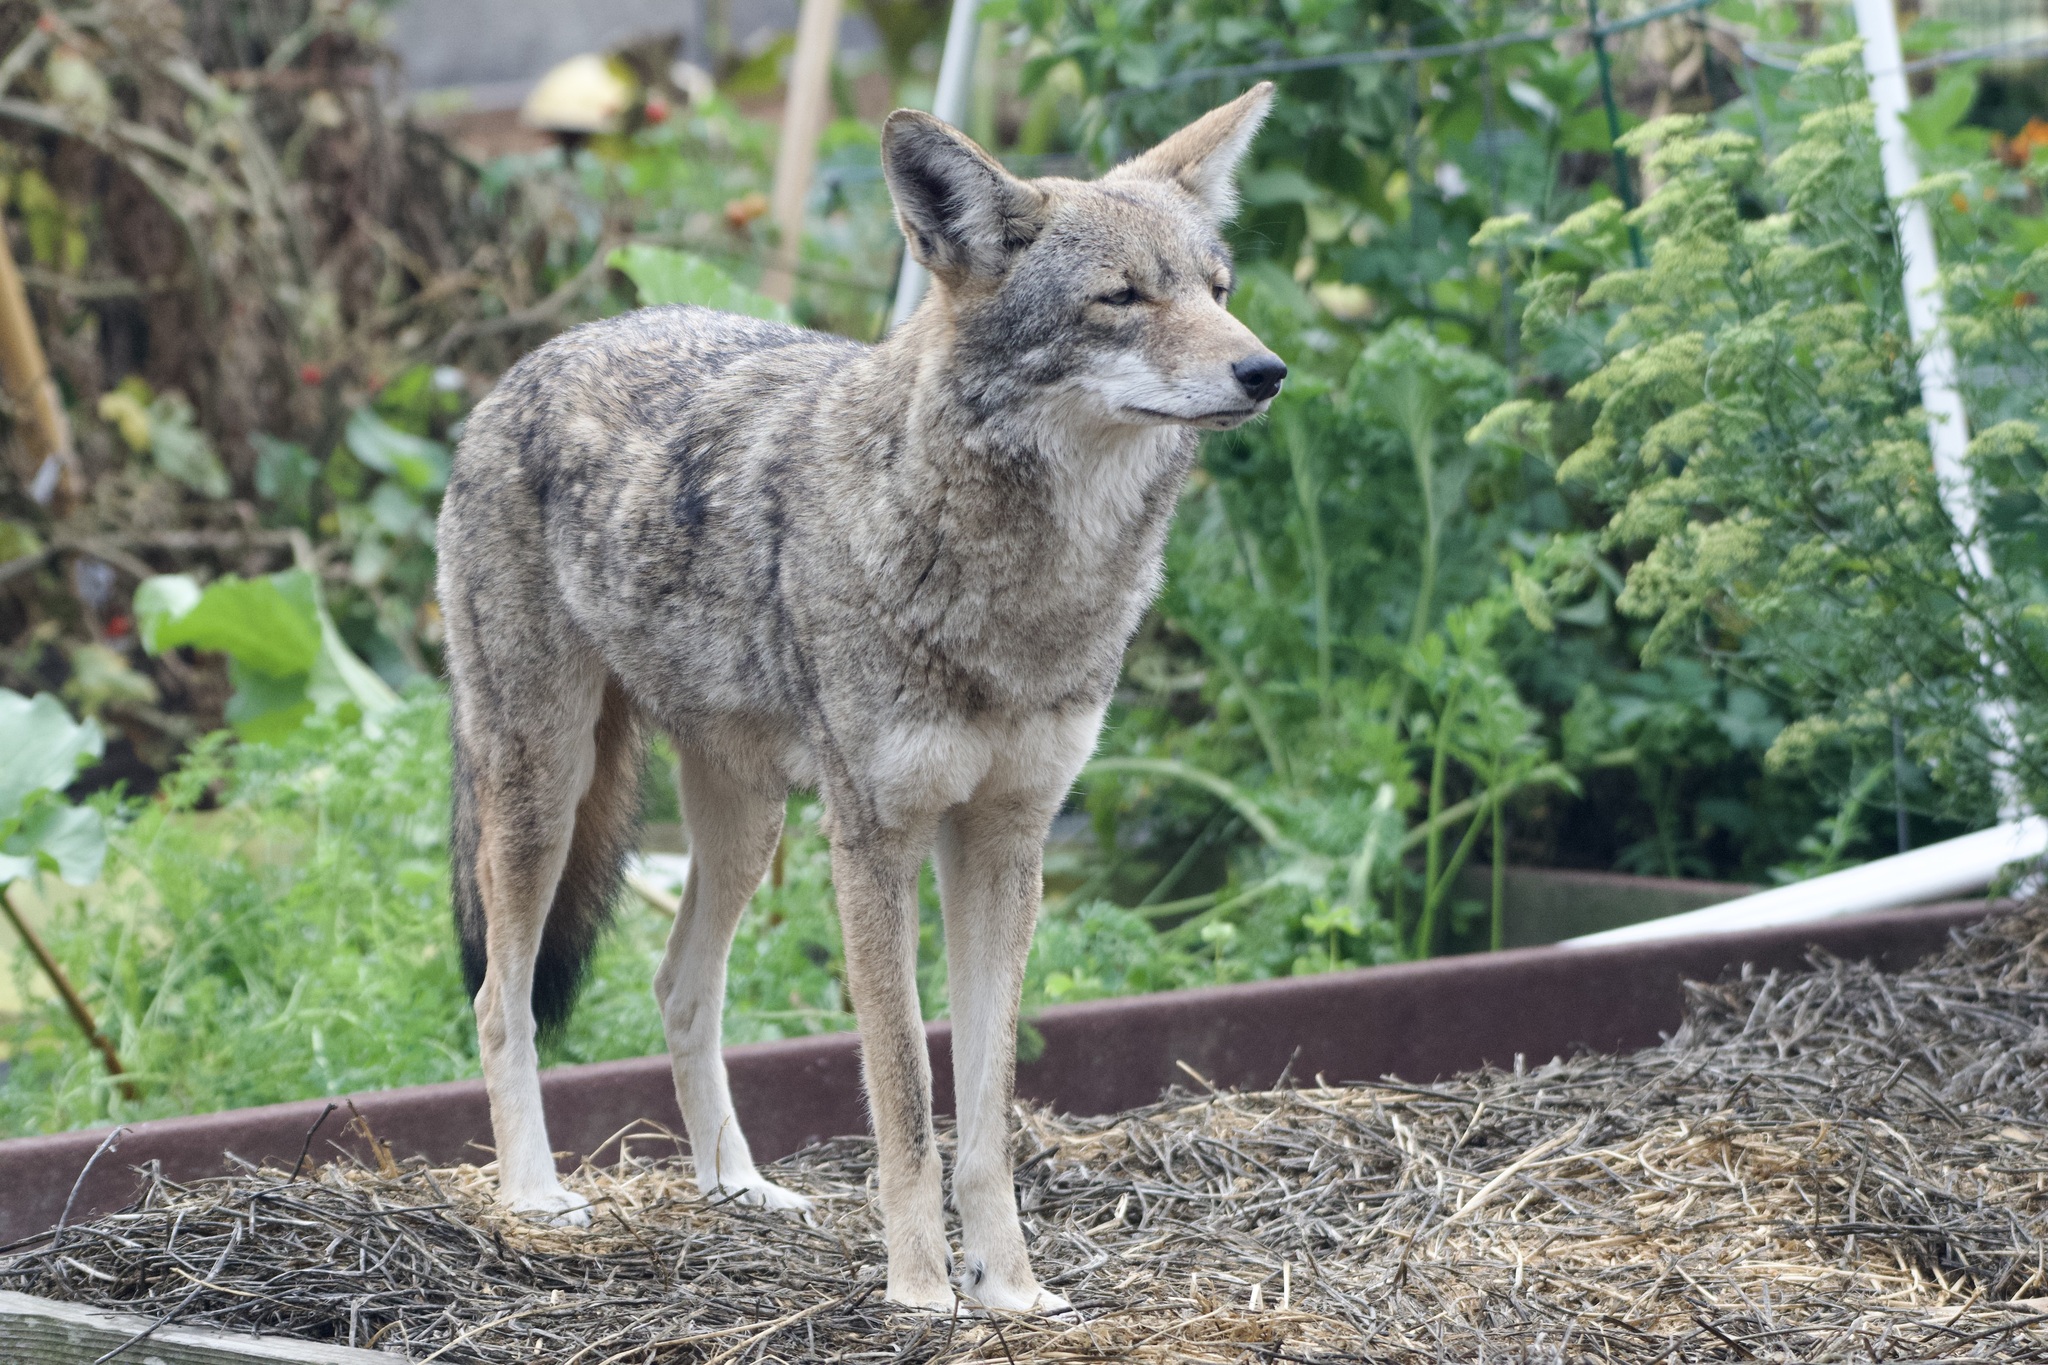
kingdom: Animalia
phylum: Chordata
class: Mammalia
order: Carnivora
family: Canidae
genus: Canis
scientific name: Canis latrans
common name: Coyote
